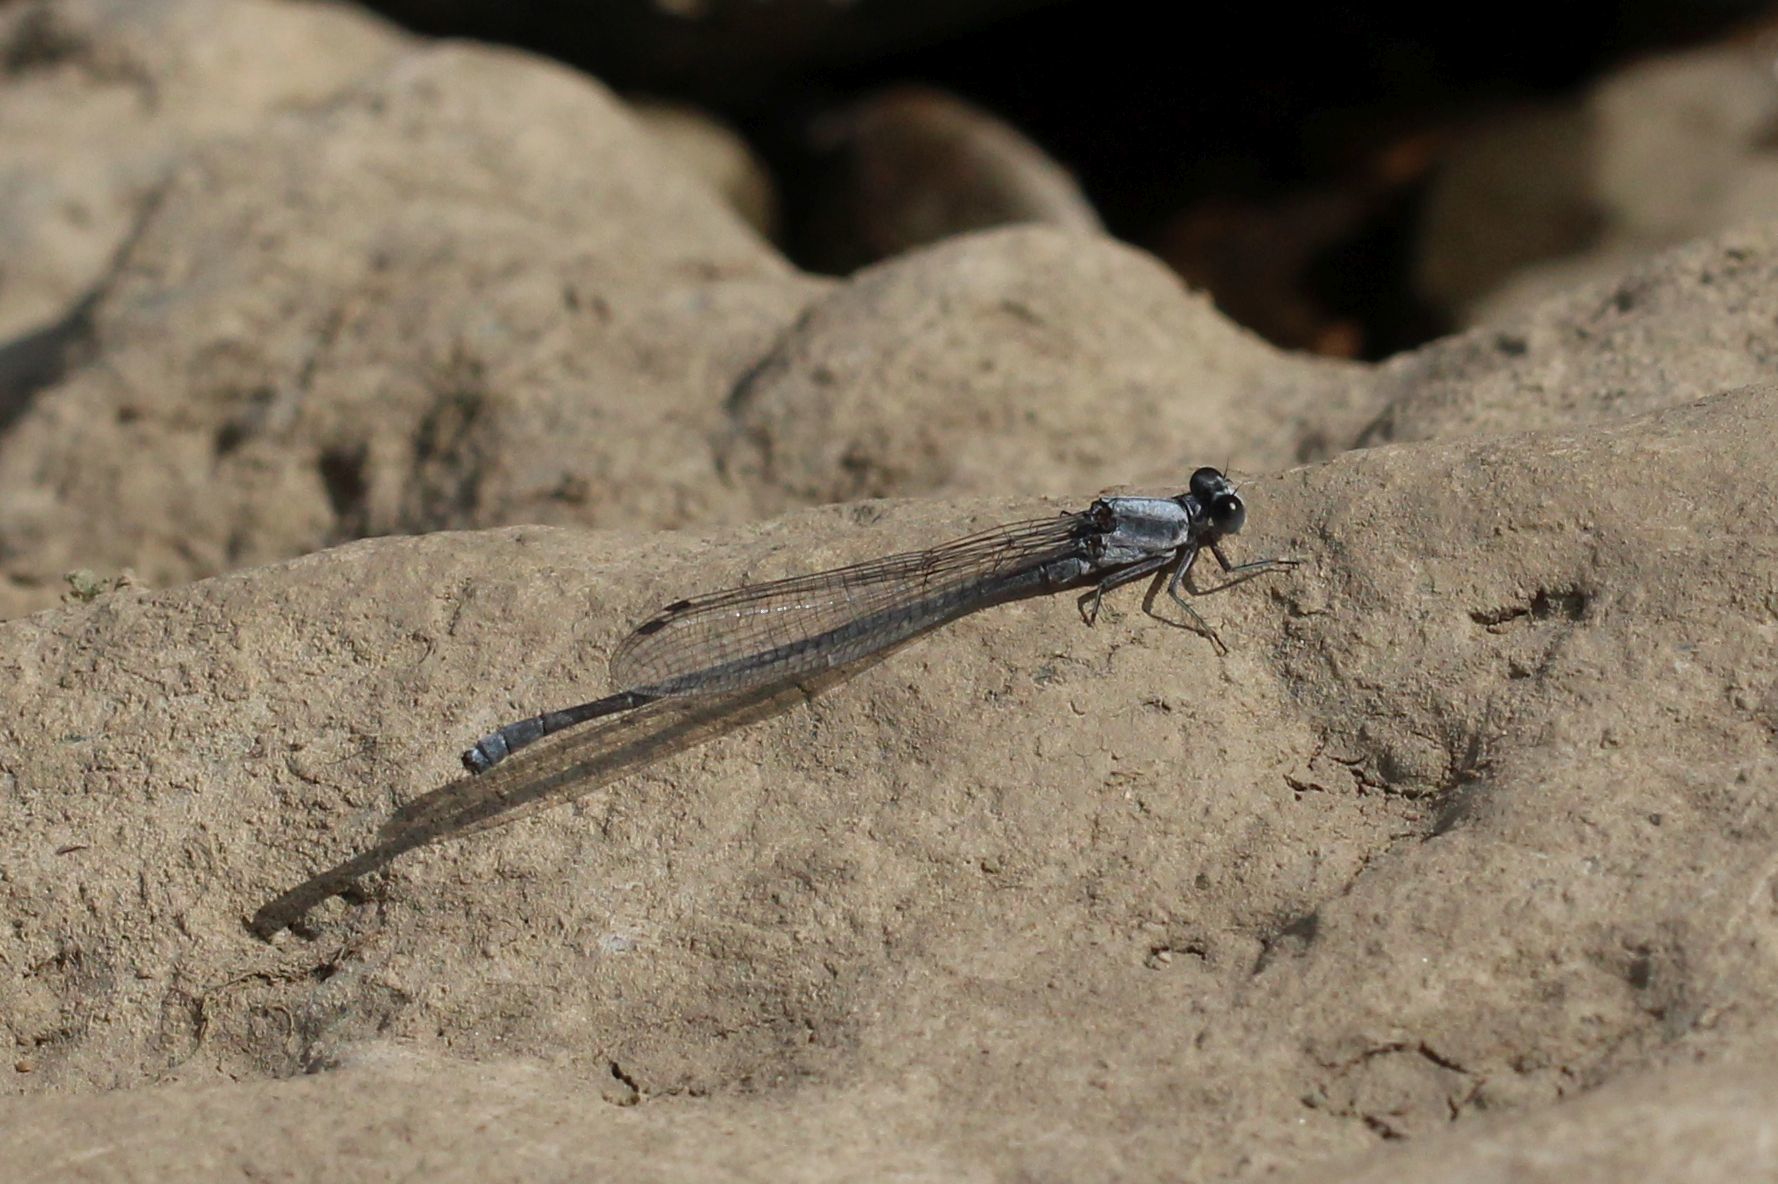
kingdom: Animalia
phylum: Arthropoda
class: Insecta
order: Odonata
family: Coenagrionidae
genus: Argia
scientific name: Argia moesta
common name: Powdered dancer
